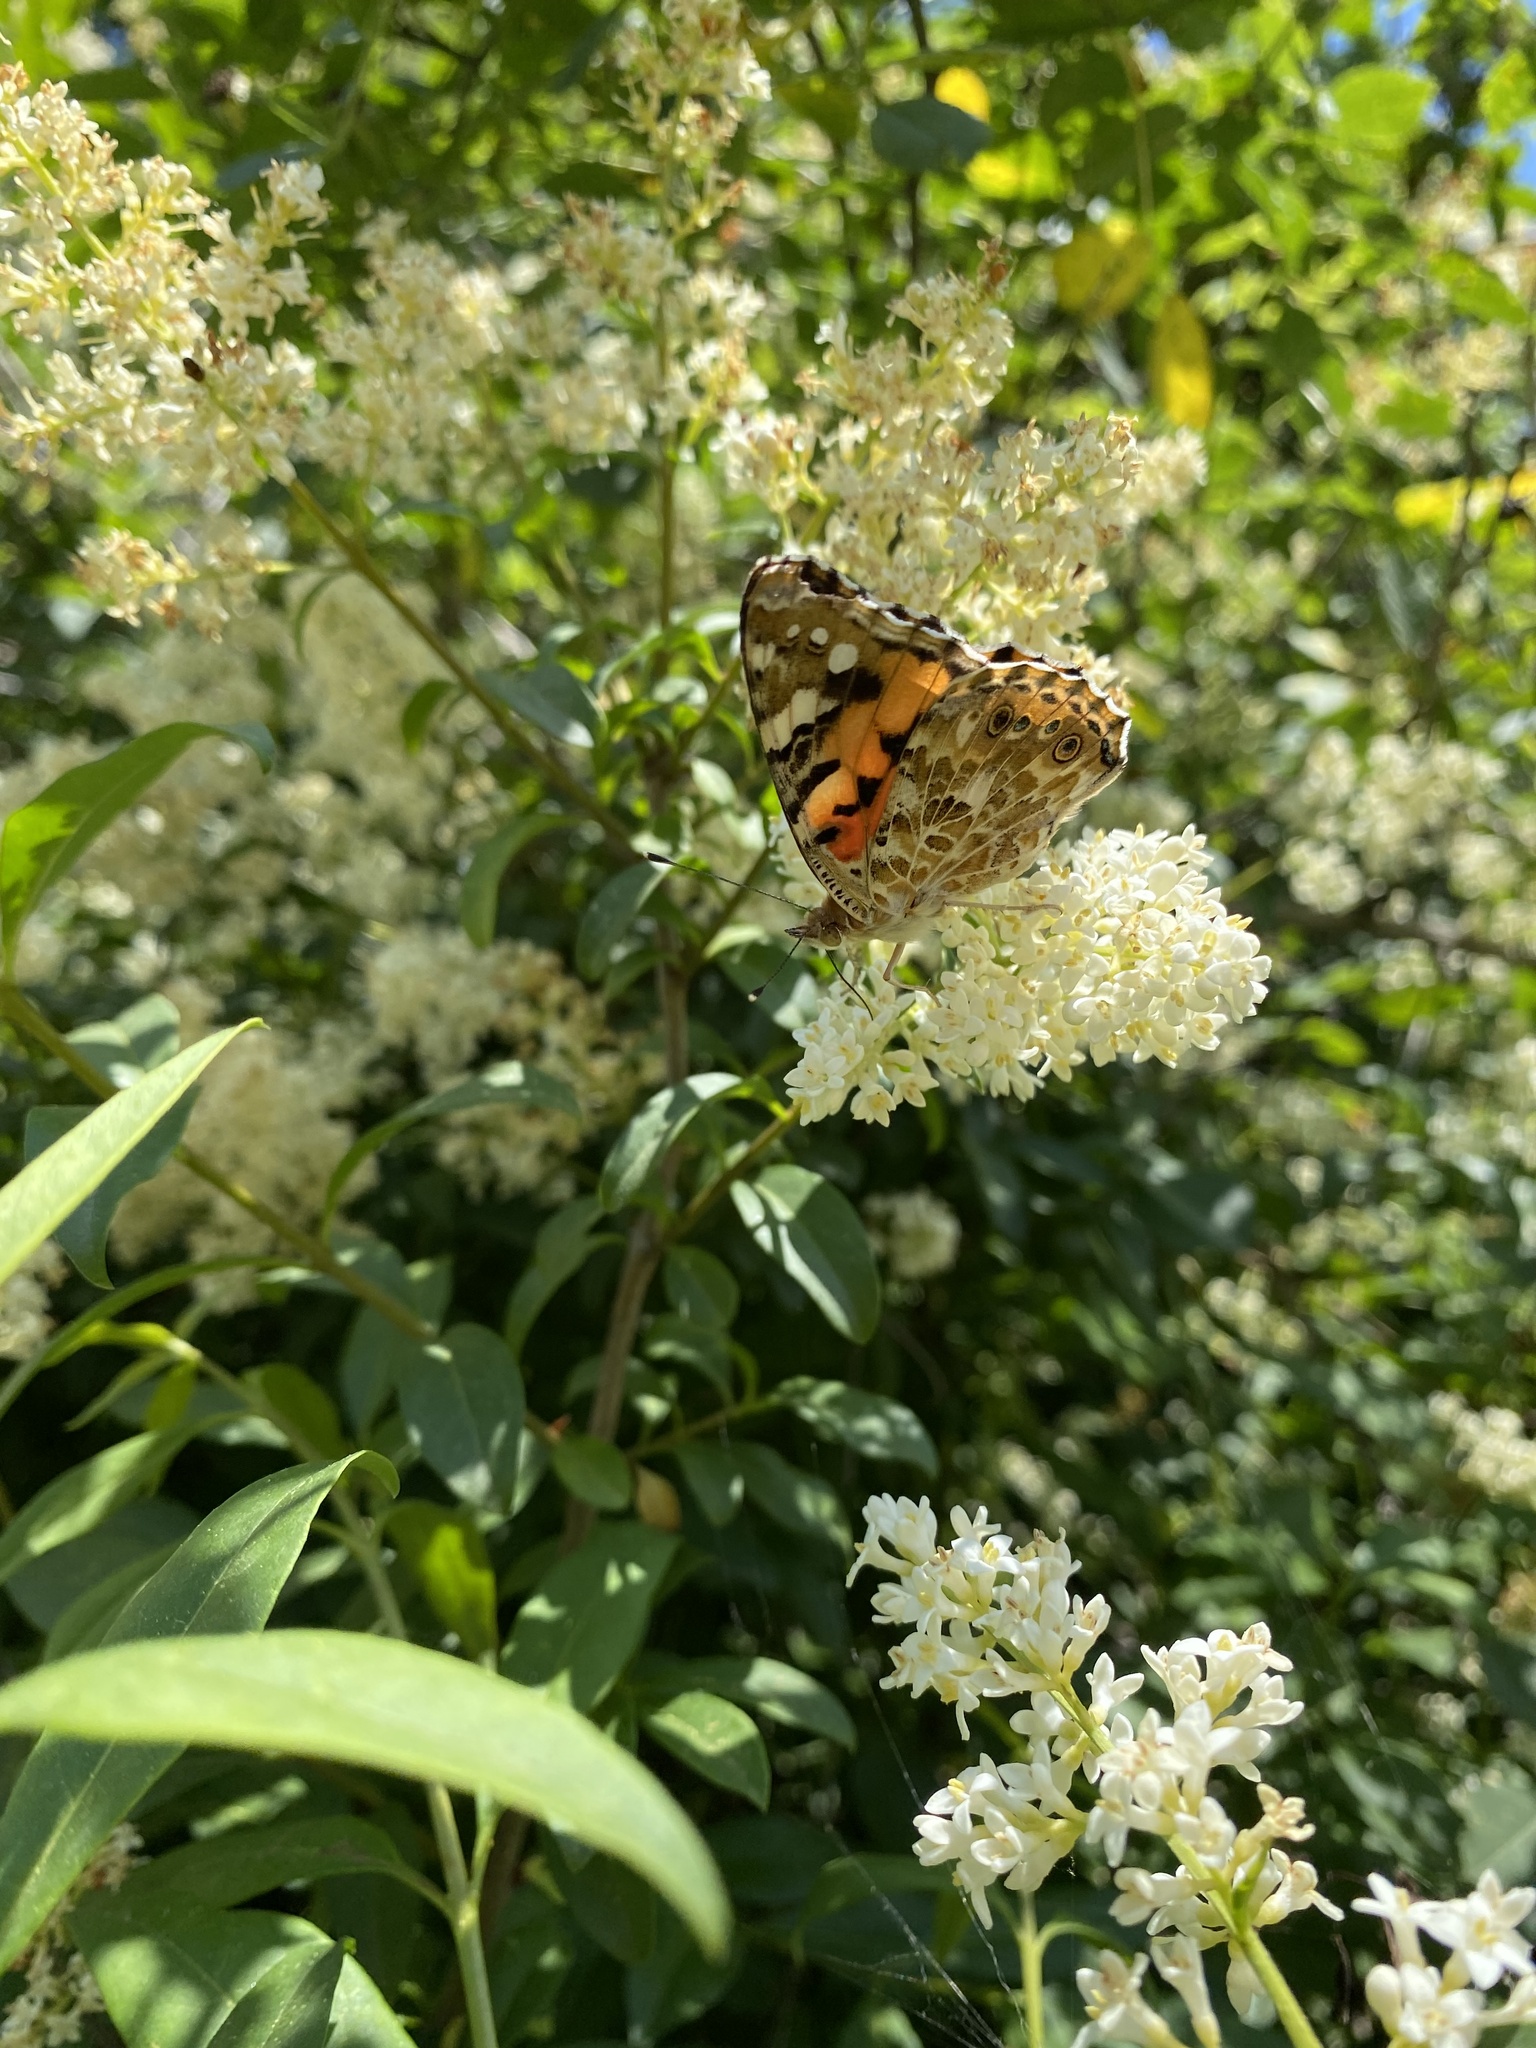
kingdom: Animalia
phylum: Arthropoda
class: Insecta
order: Lepidoptera
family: Nymphalidae
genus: Vanessa
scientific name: Vanessa cardui
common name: Painted lady
